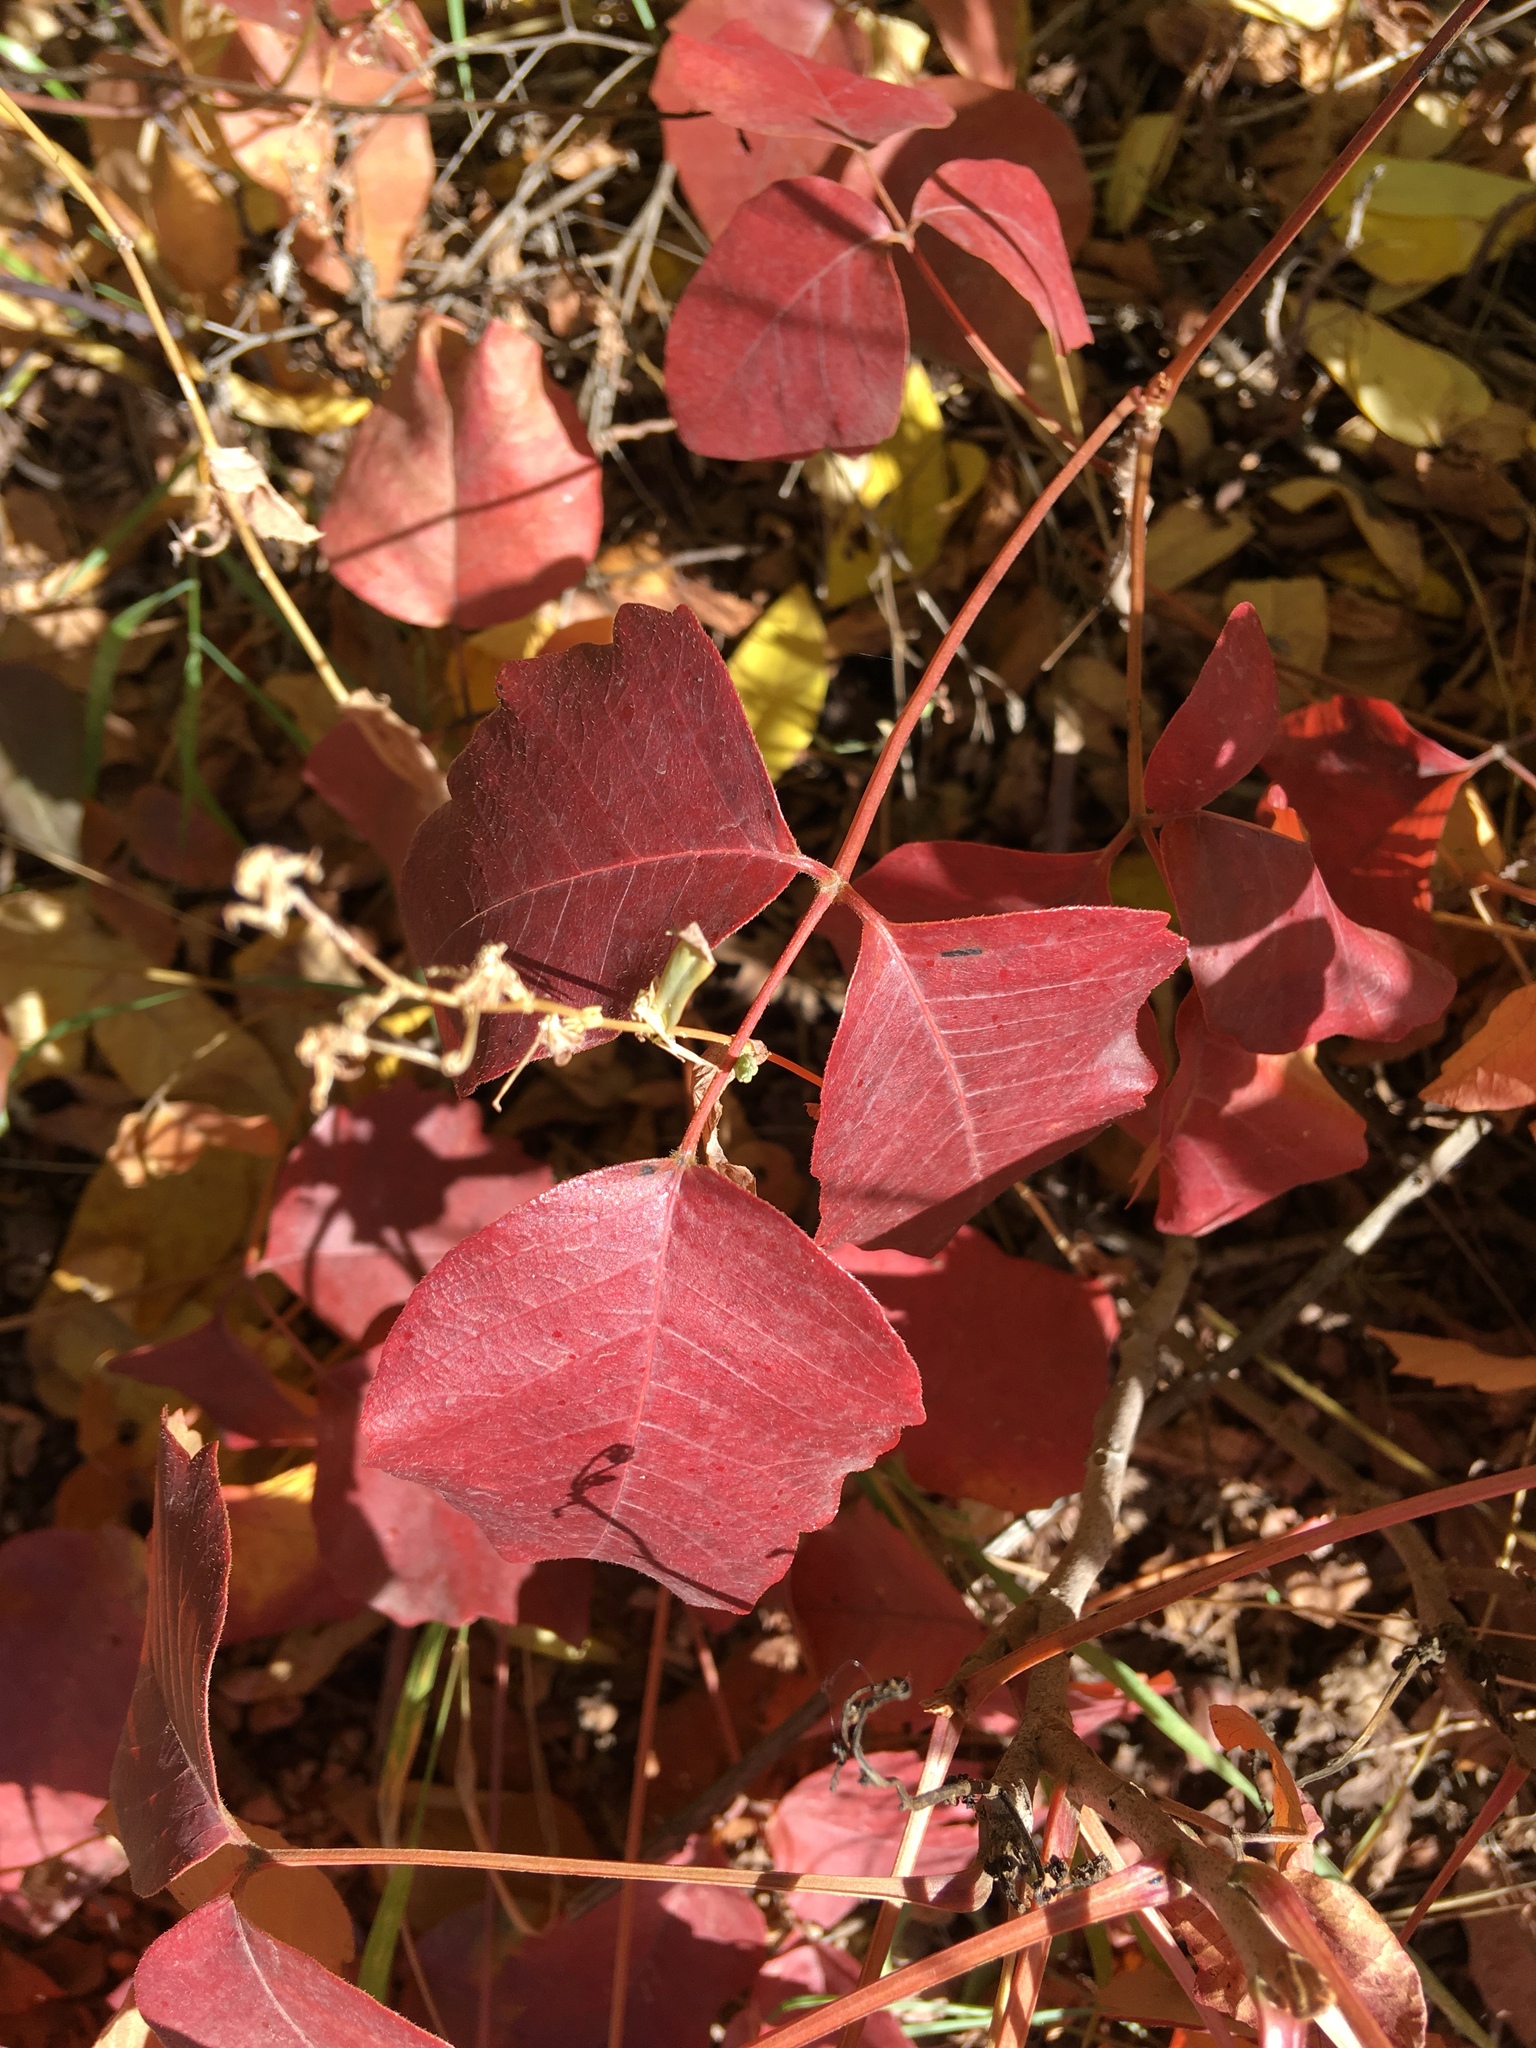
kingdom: Plantae
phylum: Tracheophyta
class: Magnoliopsida
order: Sapindales
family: Anacardiaceae
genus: Toxicodendron
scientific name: Toxicodendron rydbergii
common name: Rydberg's poison-ivy
